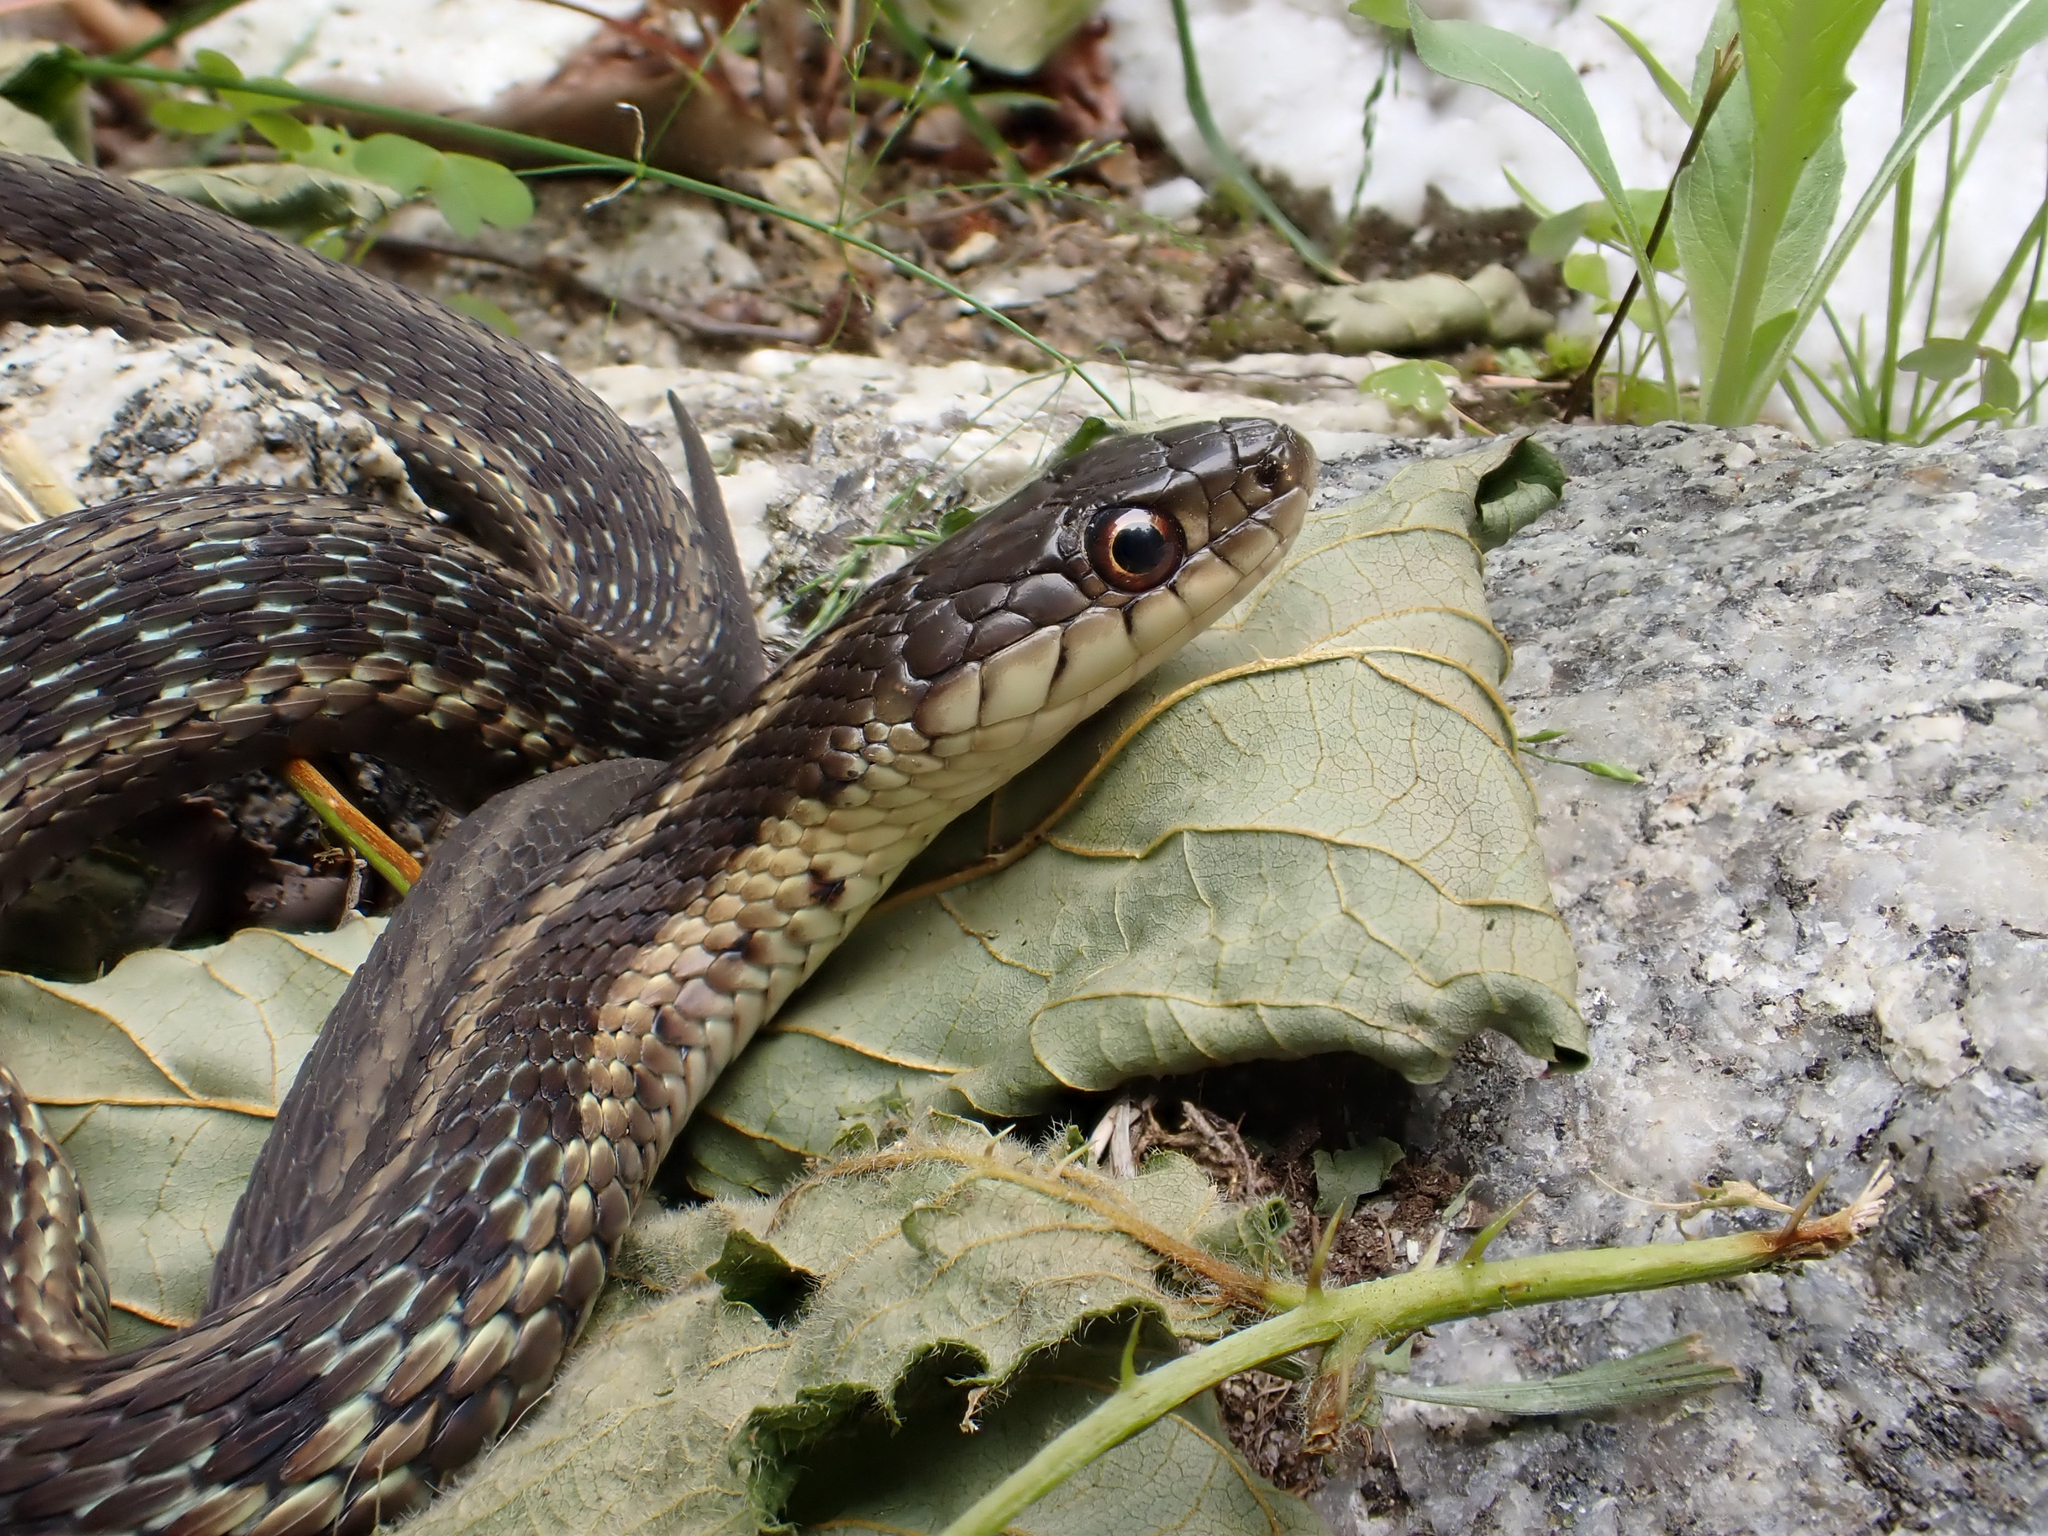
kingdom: Animalia
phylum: Chordata
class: Squamata
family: Colubridae
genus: Thamnophis
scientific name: Thamnophis sirtalis
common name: Common garter snake
